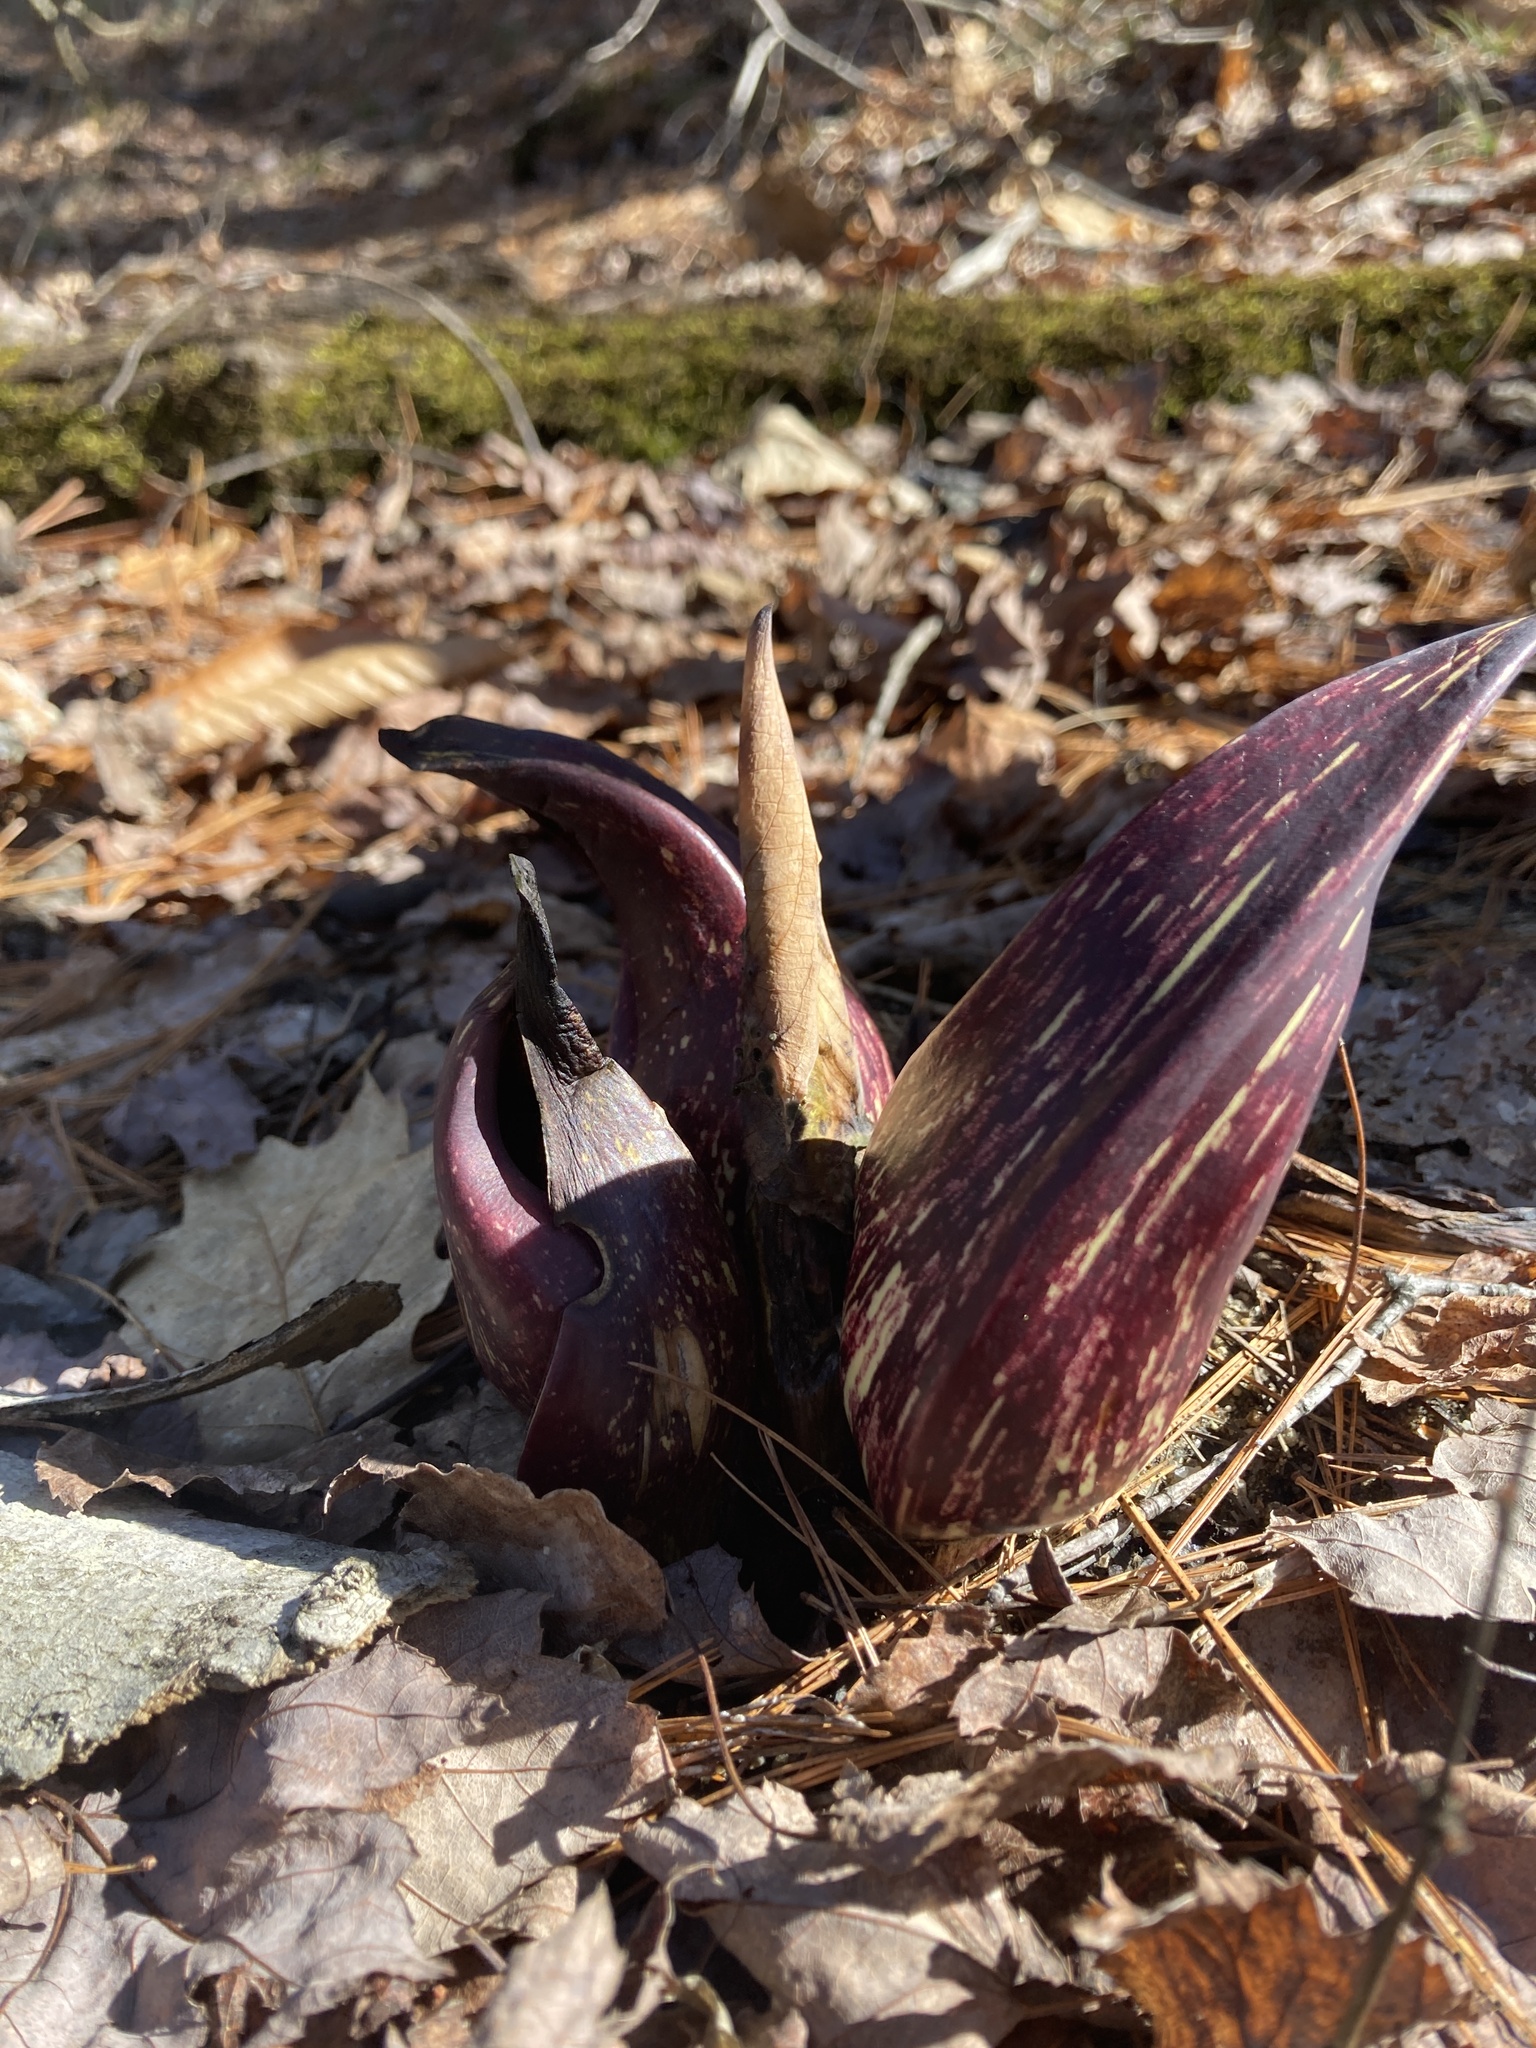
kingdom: Plantae
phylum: Tracheophyta
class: Liliopsida
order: Alismatales
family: Araceae
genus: Symplocarpus
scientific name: Symplocarpus foetidus
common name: Eastern skunk cabbage
